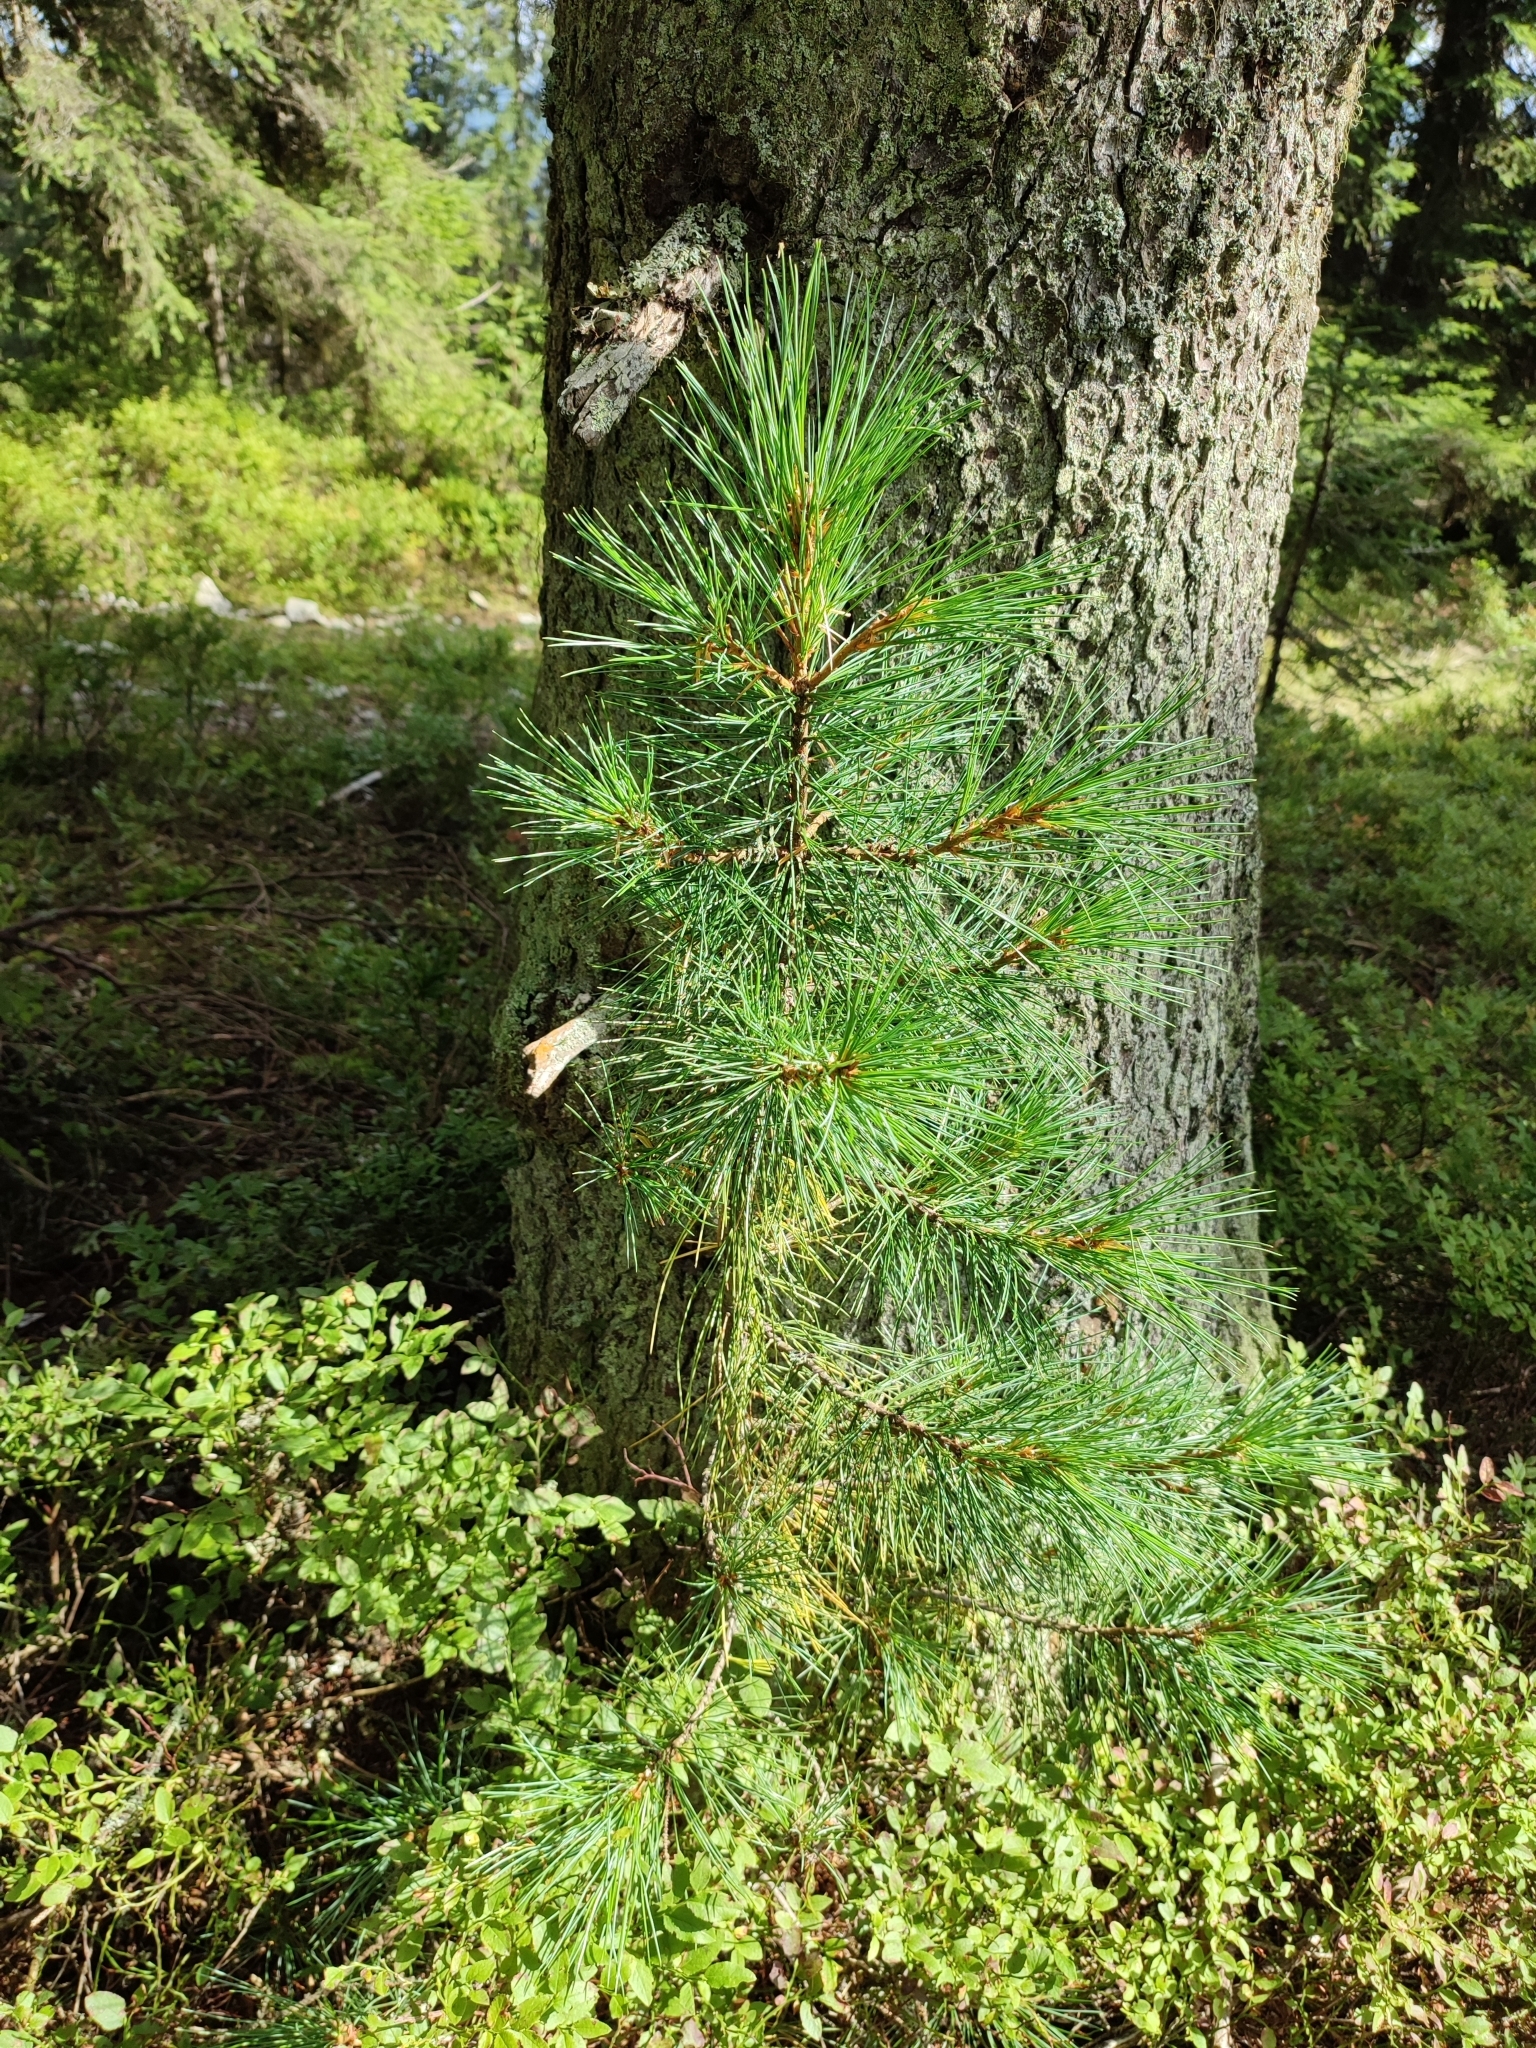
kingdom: Plantae
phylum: Tracheophyta
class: Pinopsida
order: Pinales
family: Pinaceae
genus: Pinus
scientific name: Pinus cembra
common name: Arolla pine
